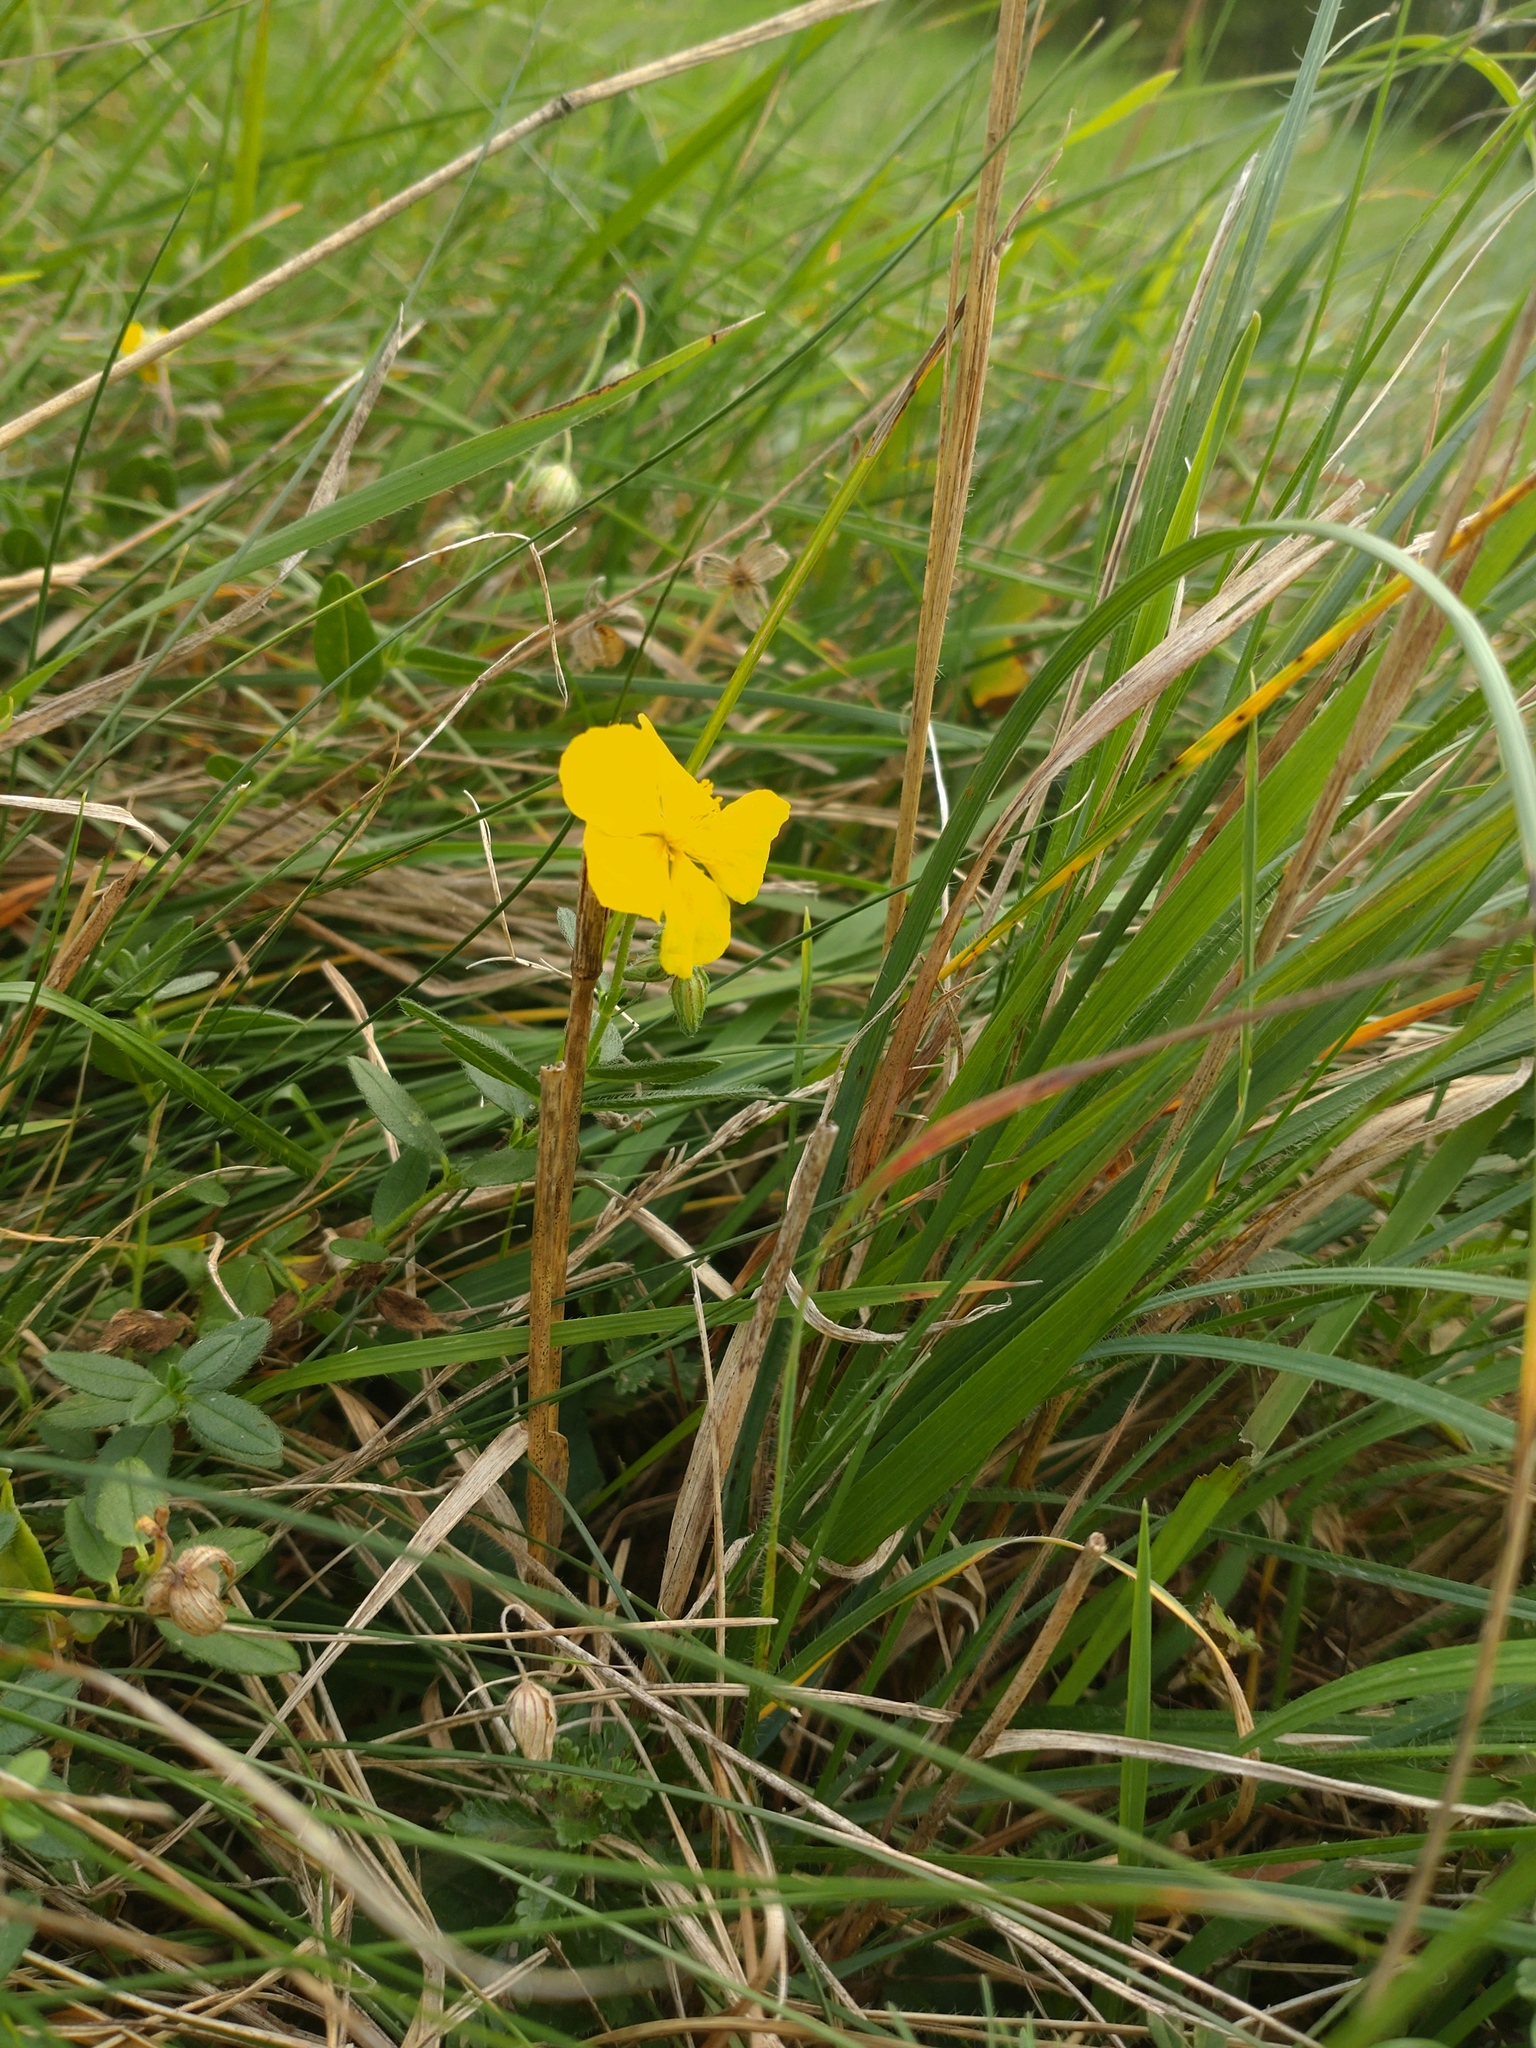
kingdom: Plantae
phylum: Tracheophyta
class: Magnoliopsida
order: Malvales
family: Cistaceae
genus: Helianthemum
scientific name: Helianthemum nummularium
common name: Common rock-rose
